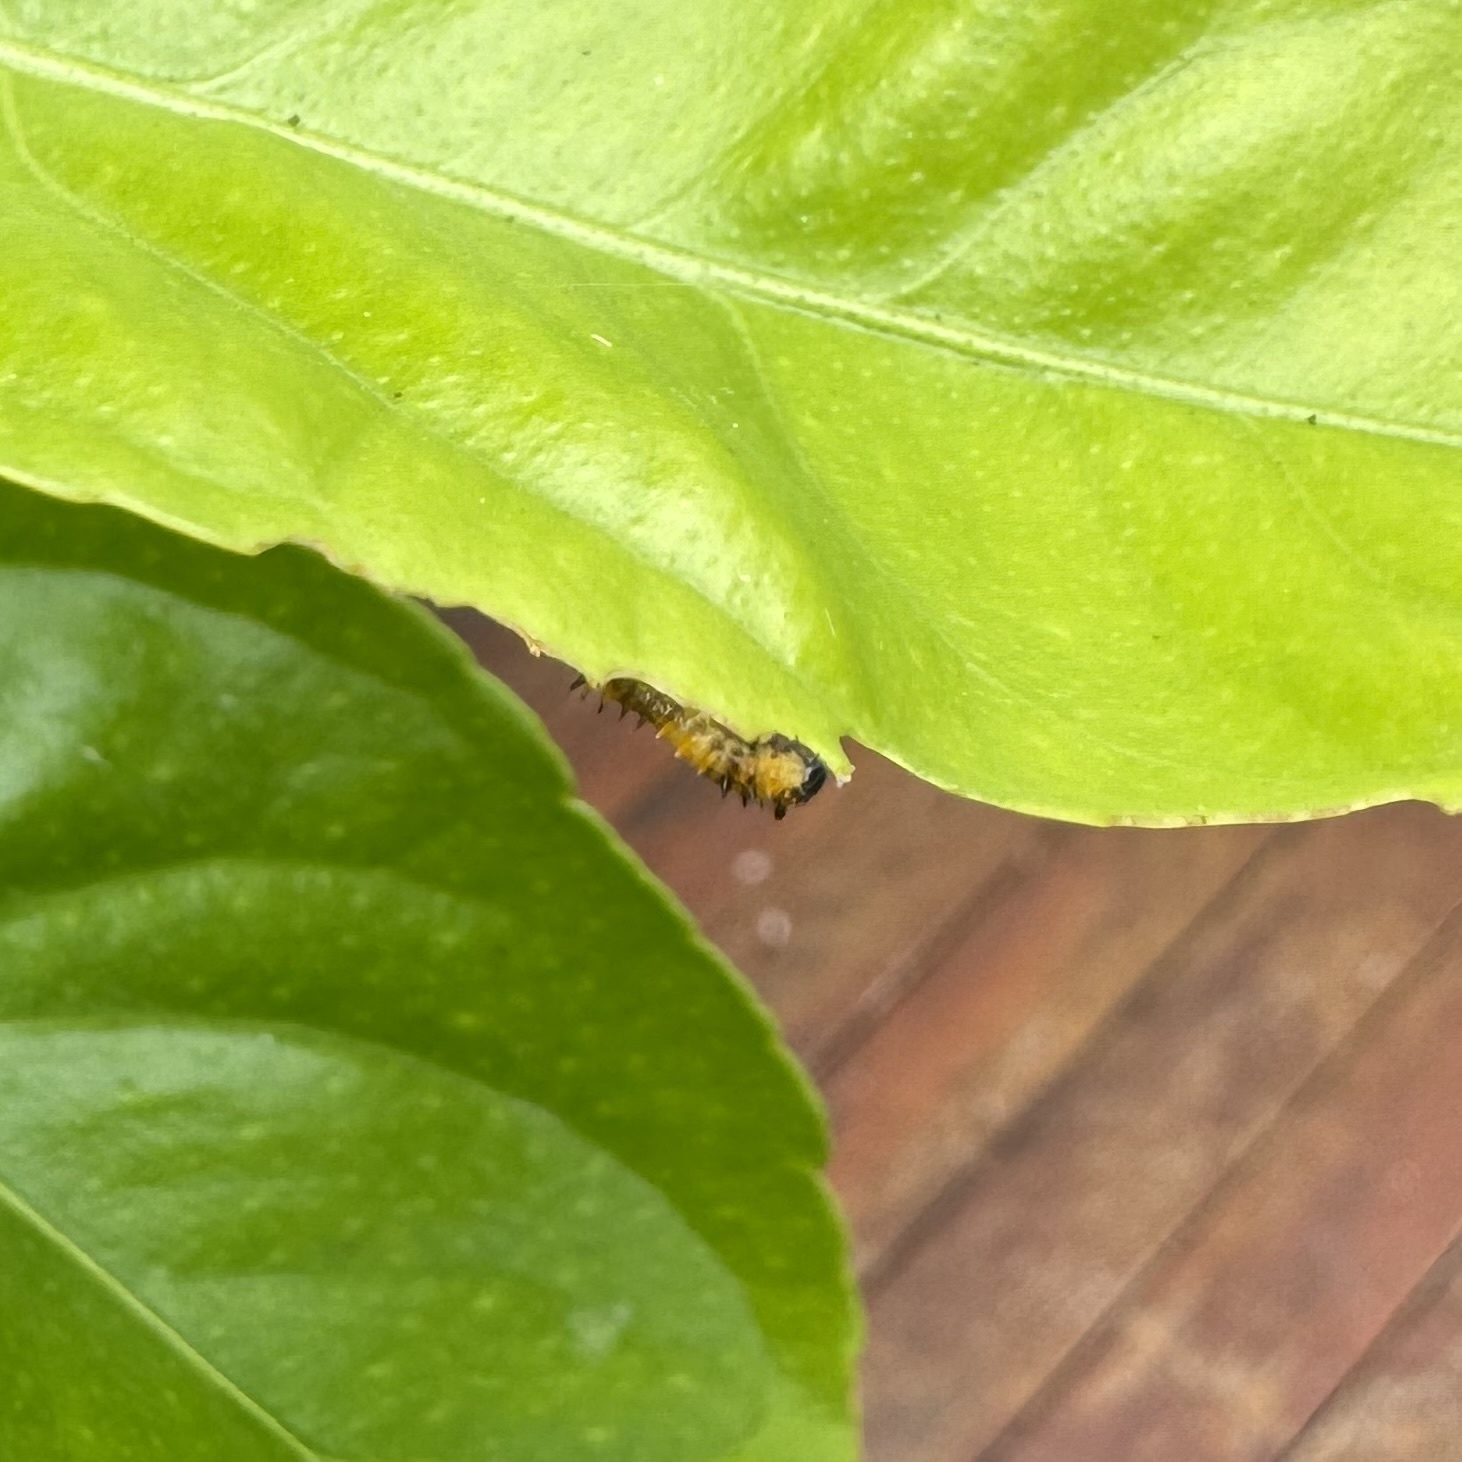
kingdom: Animalia
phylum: Arthropoda
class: Insecta
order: Lepidoptera
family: Papilionidae
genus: Papilio
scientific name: Papilio anactus
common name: Dingy swallowtail
